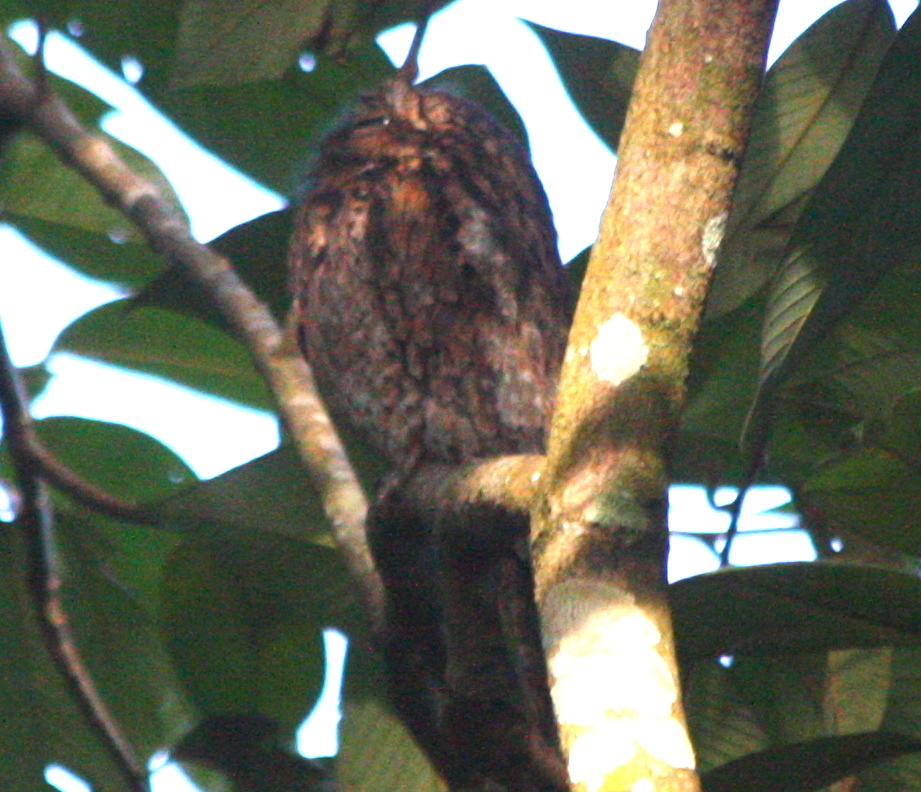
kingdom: Animalia
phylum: Chordata
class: Aves
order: Nyctibiiformes
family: Nyctibiidae
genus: Nyctibius
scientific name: Nyctibius griseus
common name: Common potoo
